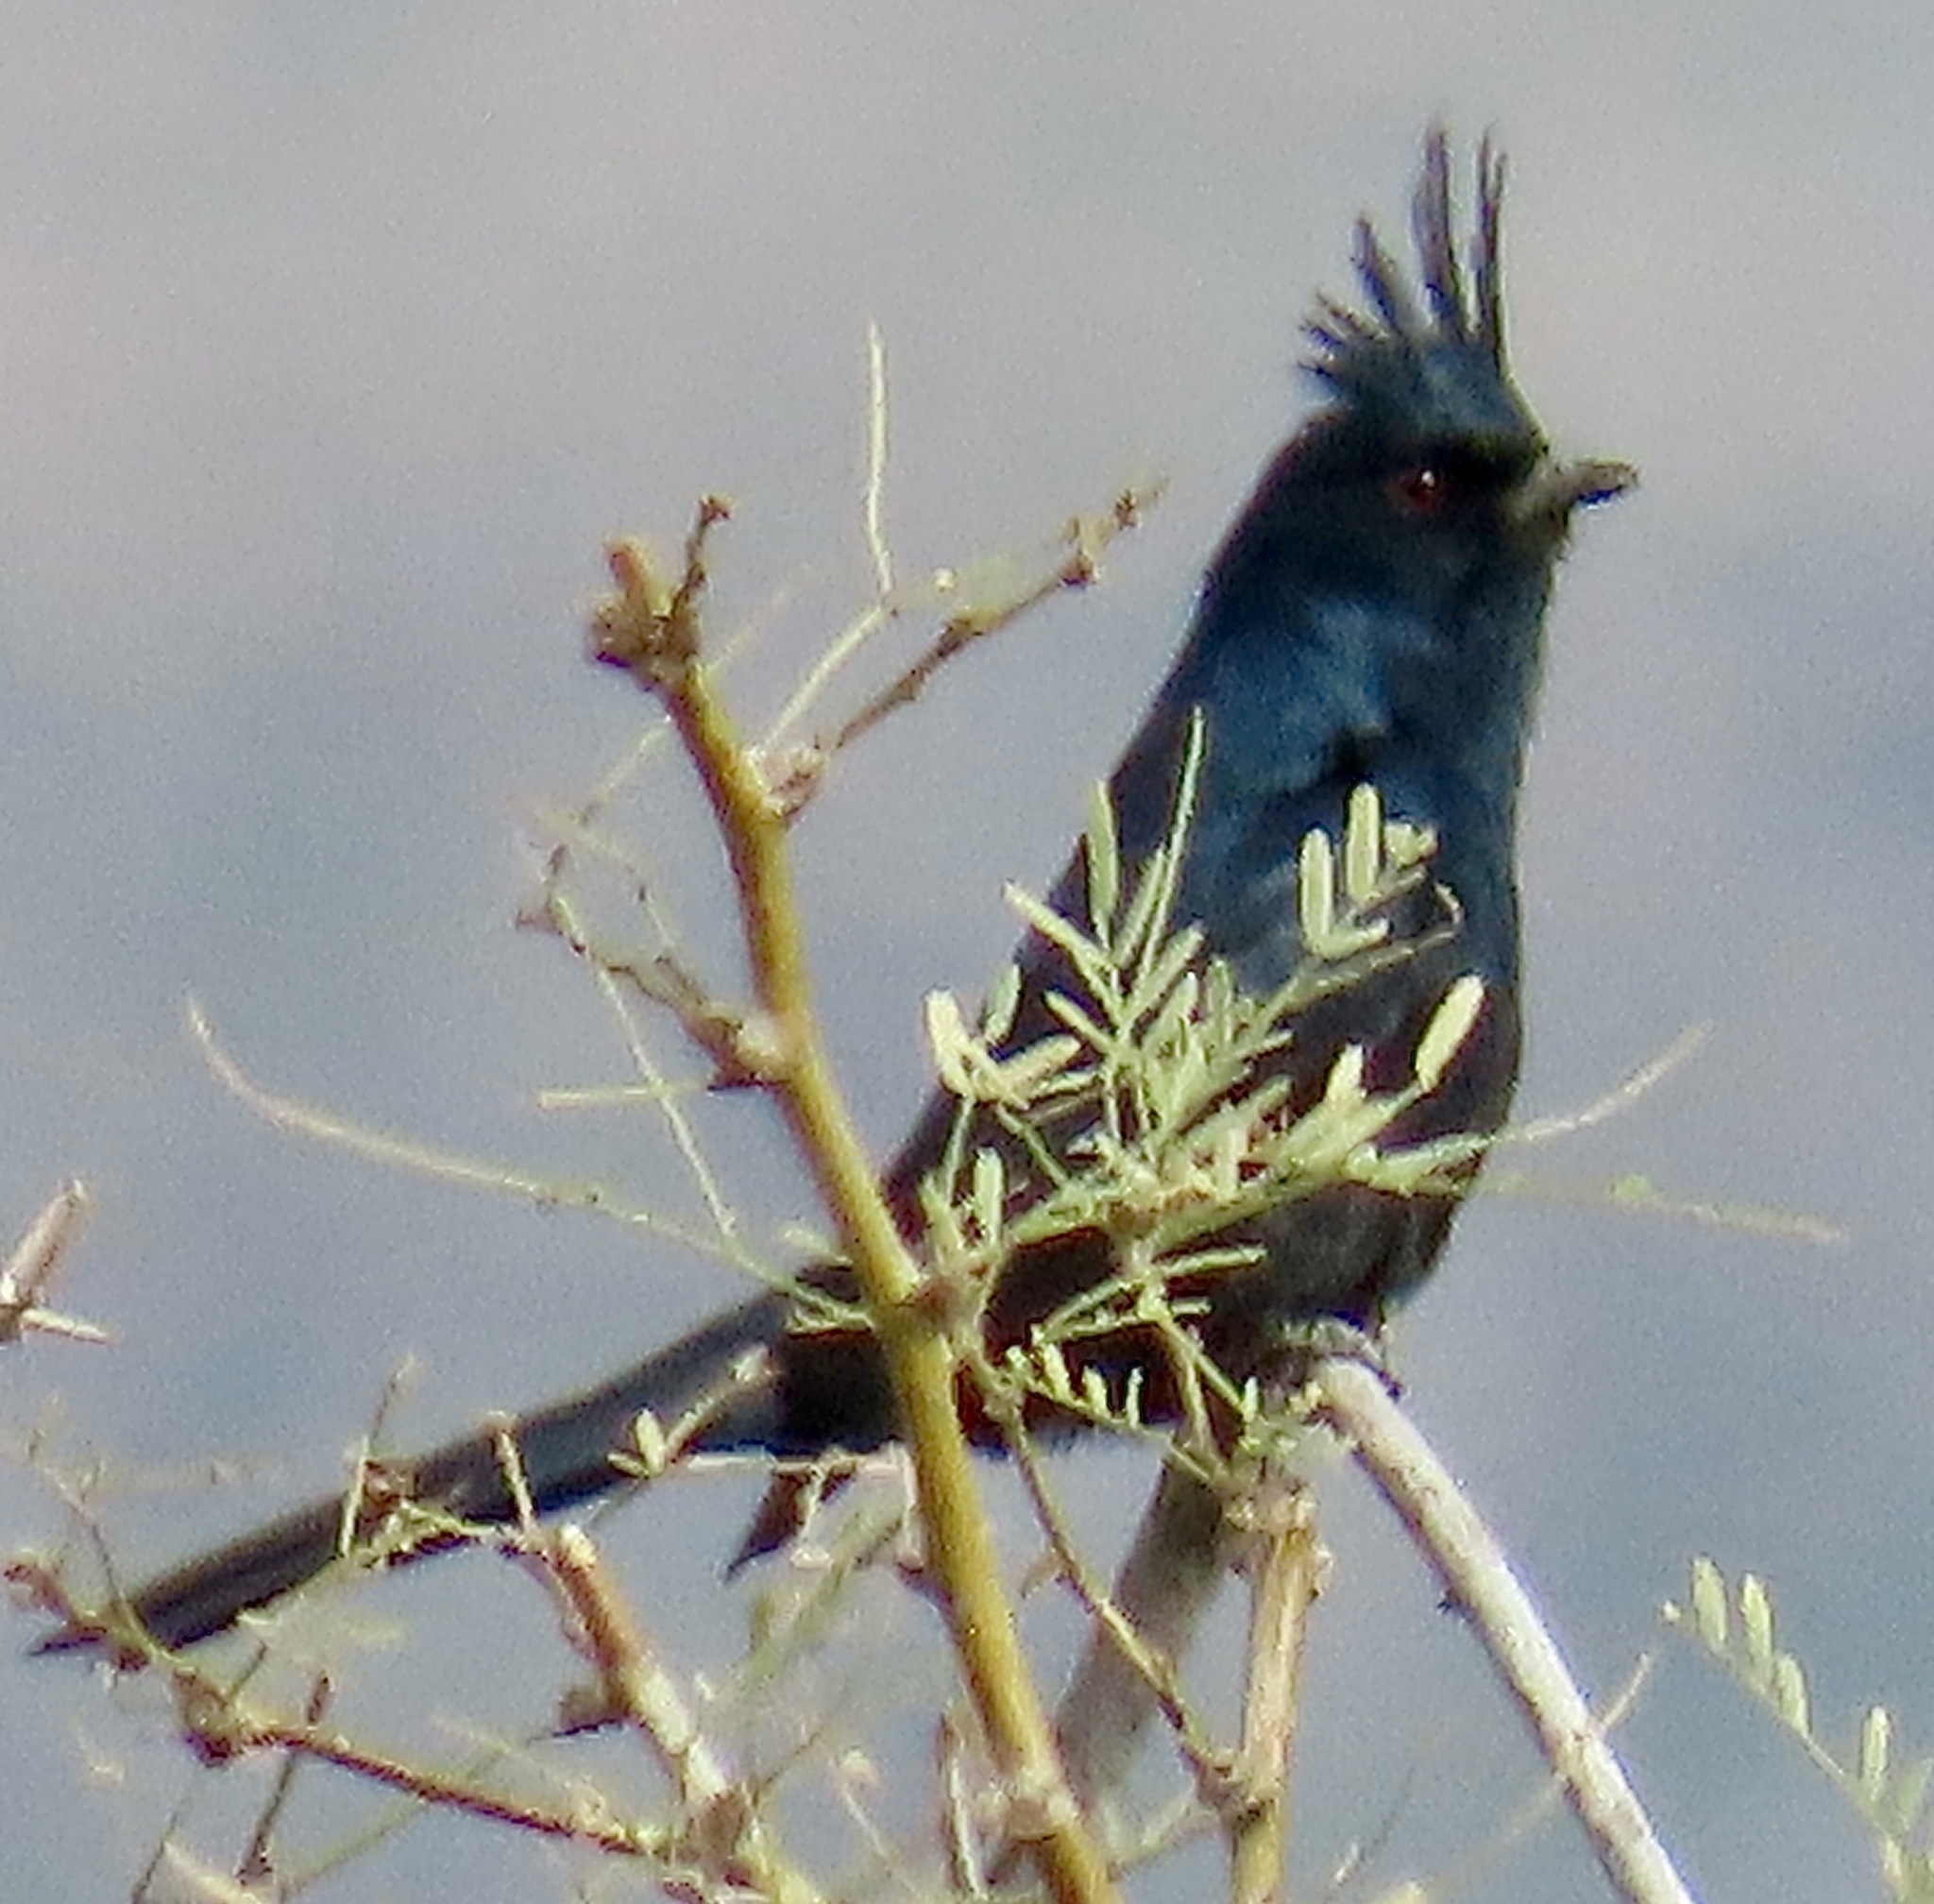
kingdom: Animalia
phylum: Chordata
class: Aves
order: Passeriformes
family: Ptilogonatidae
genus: Phainopepla
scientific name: Phainopepla nitens
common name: Phainopepla
